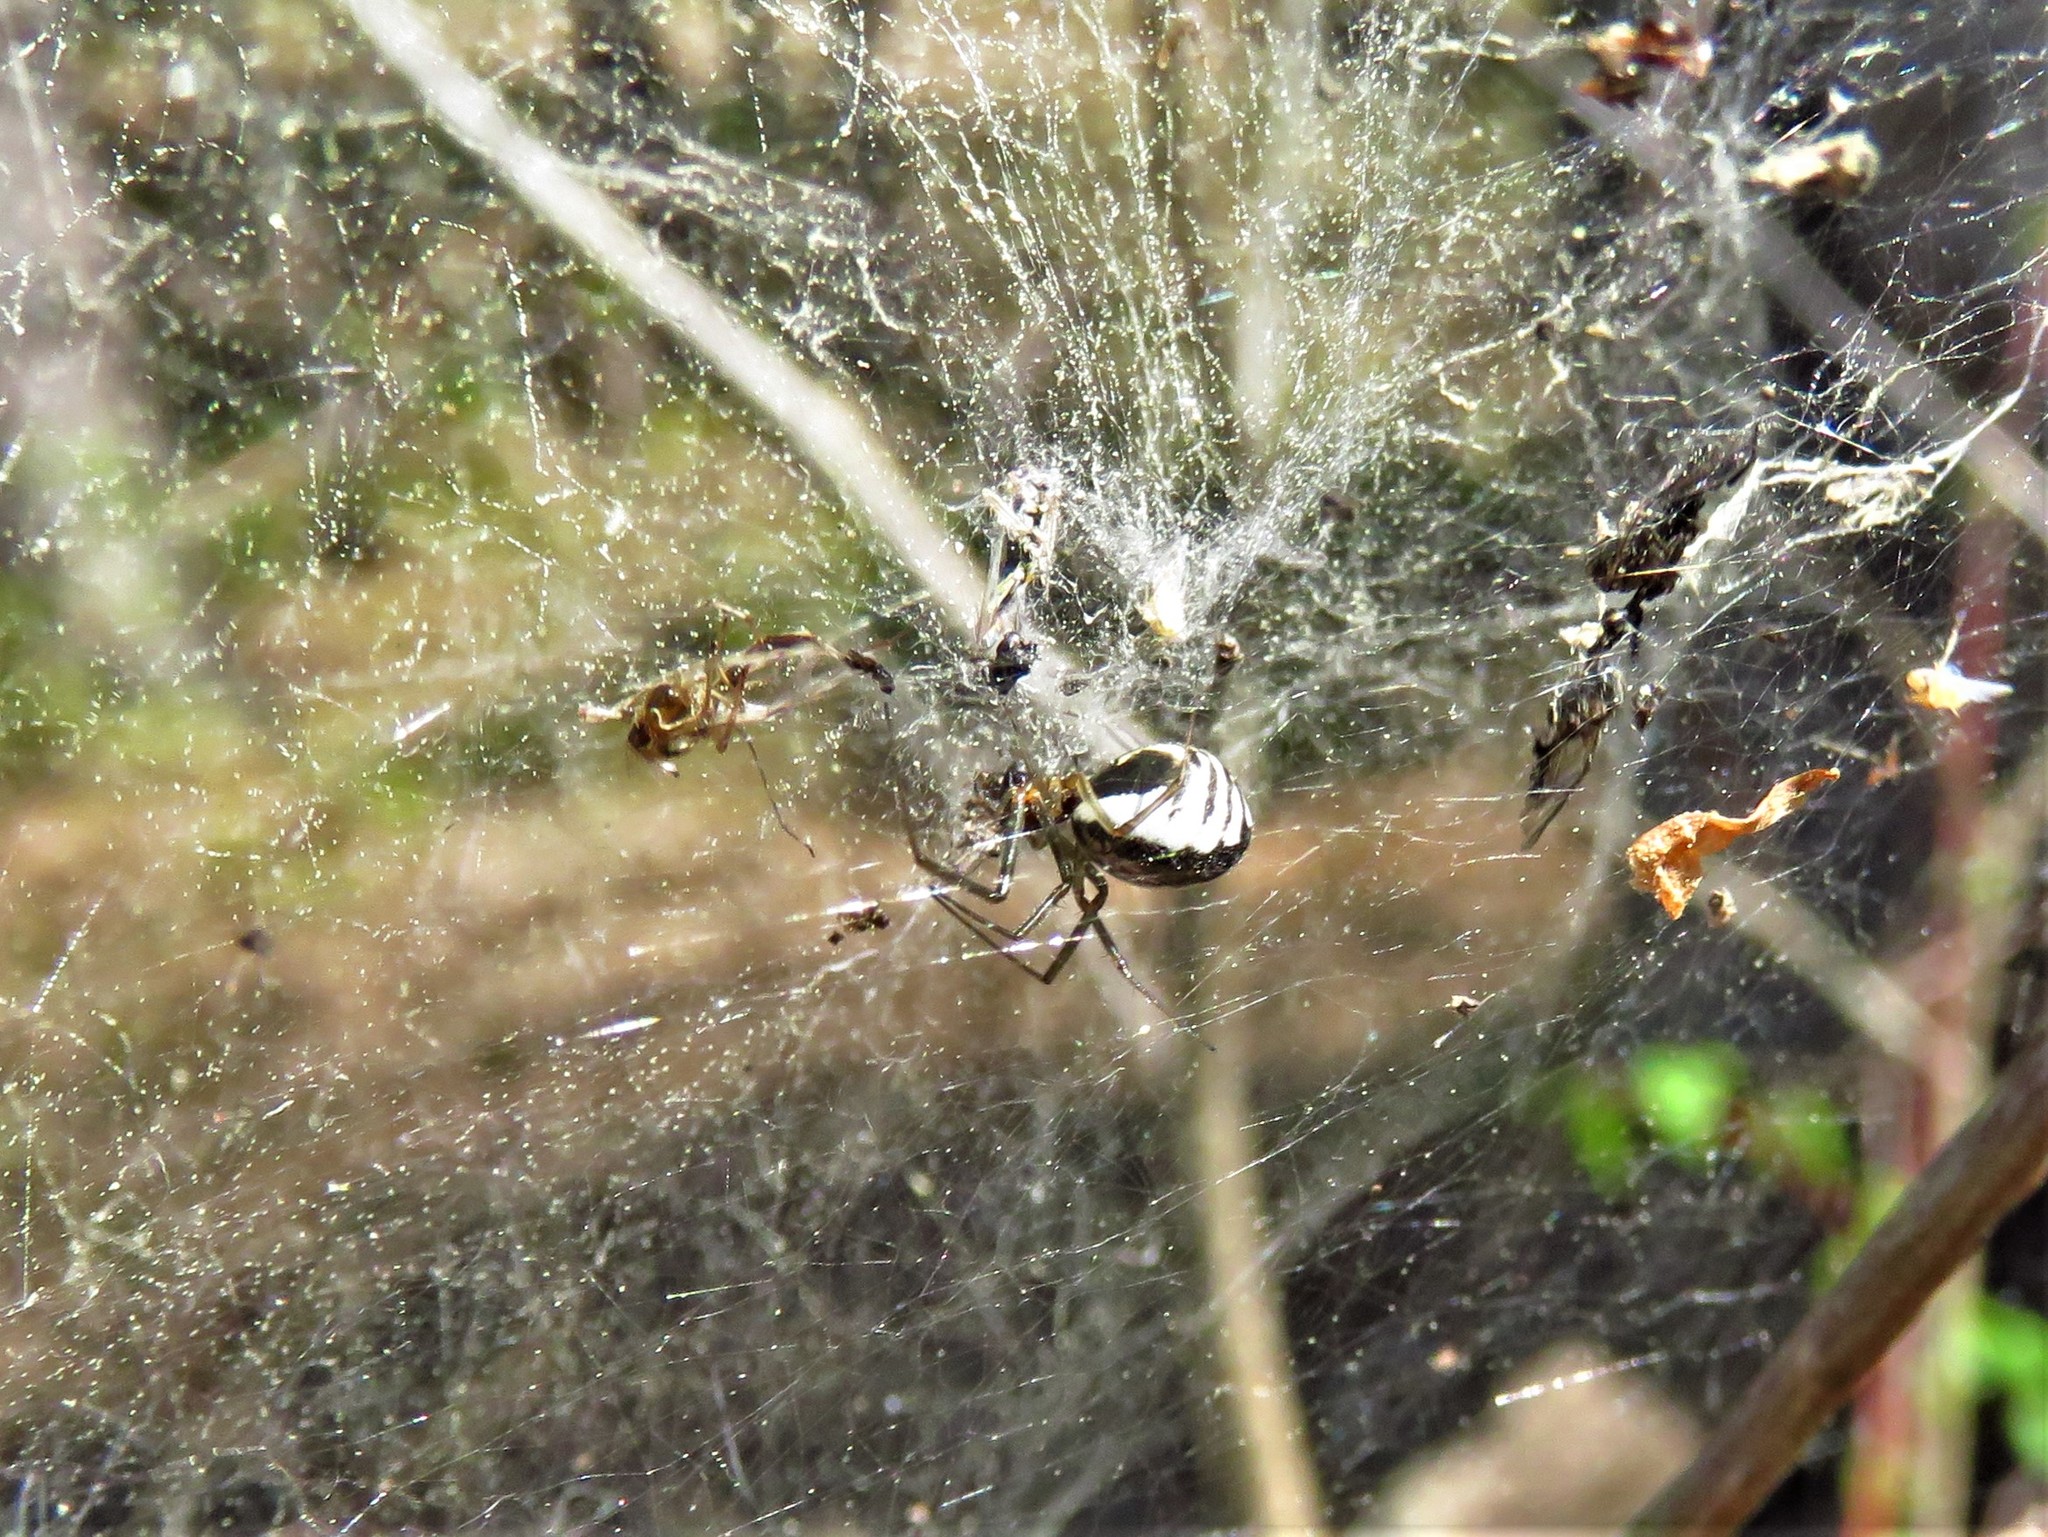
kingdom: Animalia
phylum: Arthropoda
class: Arachnida
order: Araneae
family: Linyphiidae
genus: Frontinella
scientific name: Frontinella pyramitela
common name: Bowl-and-doily spider
